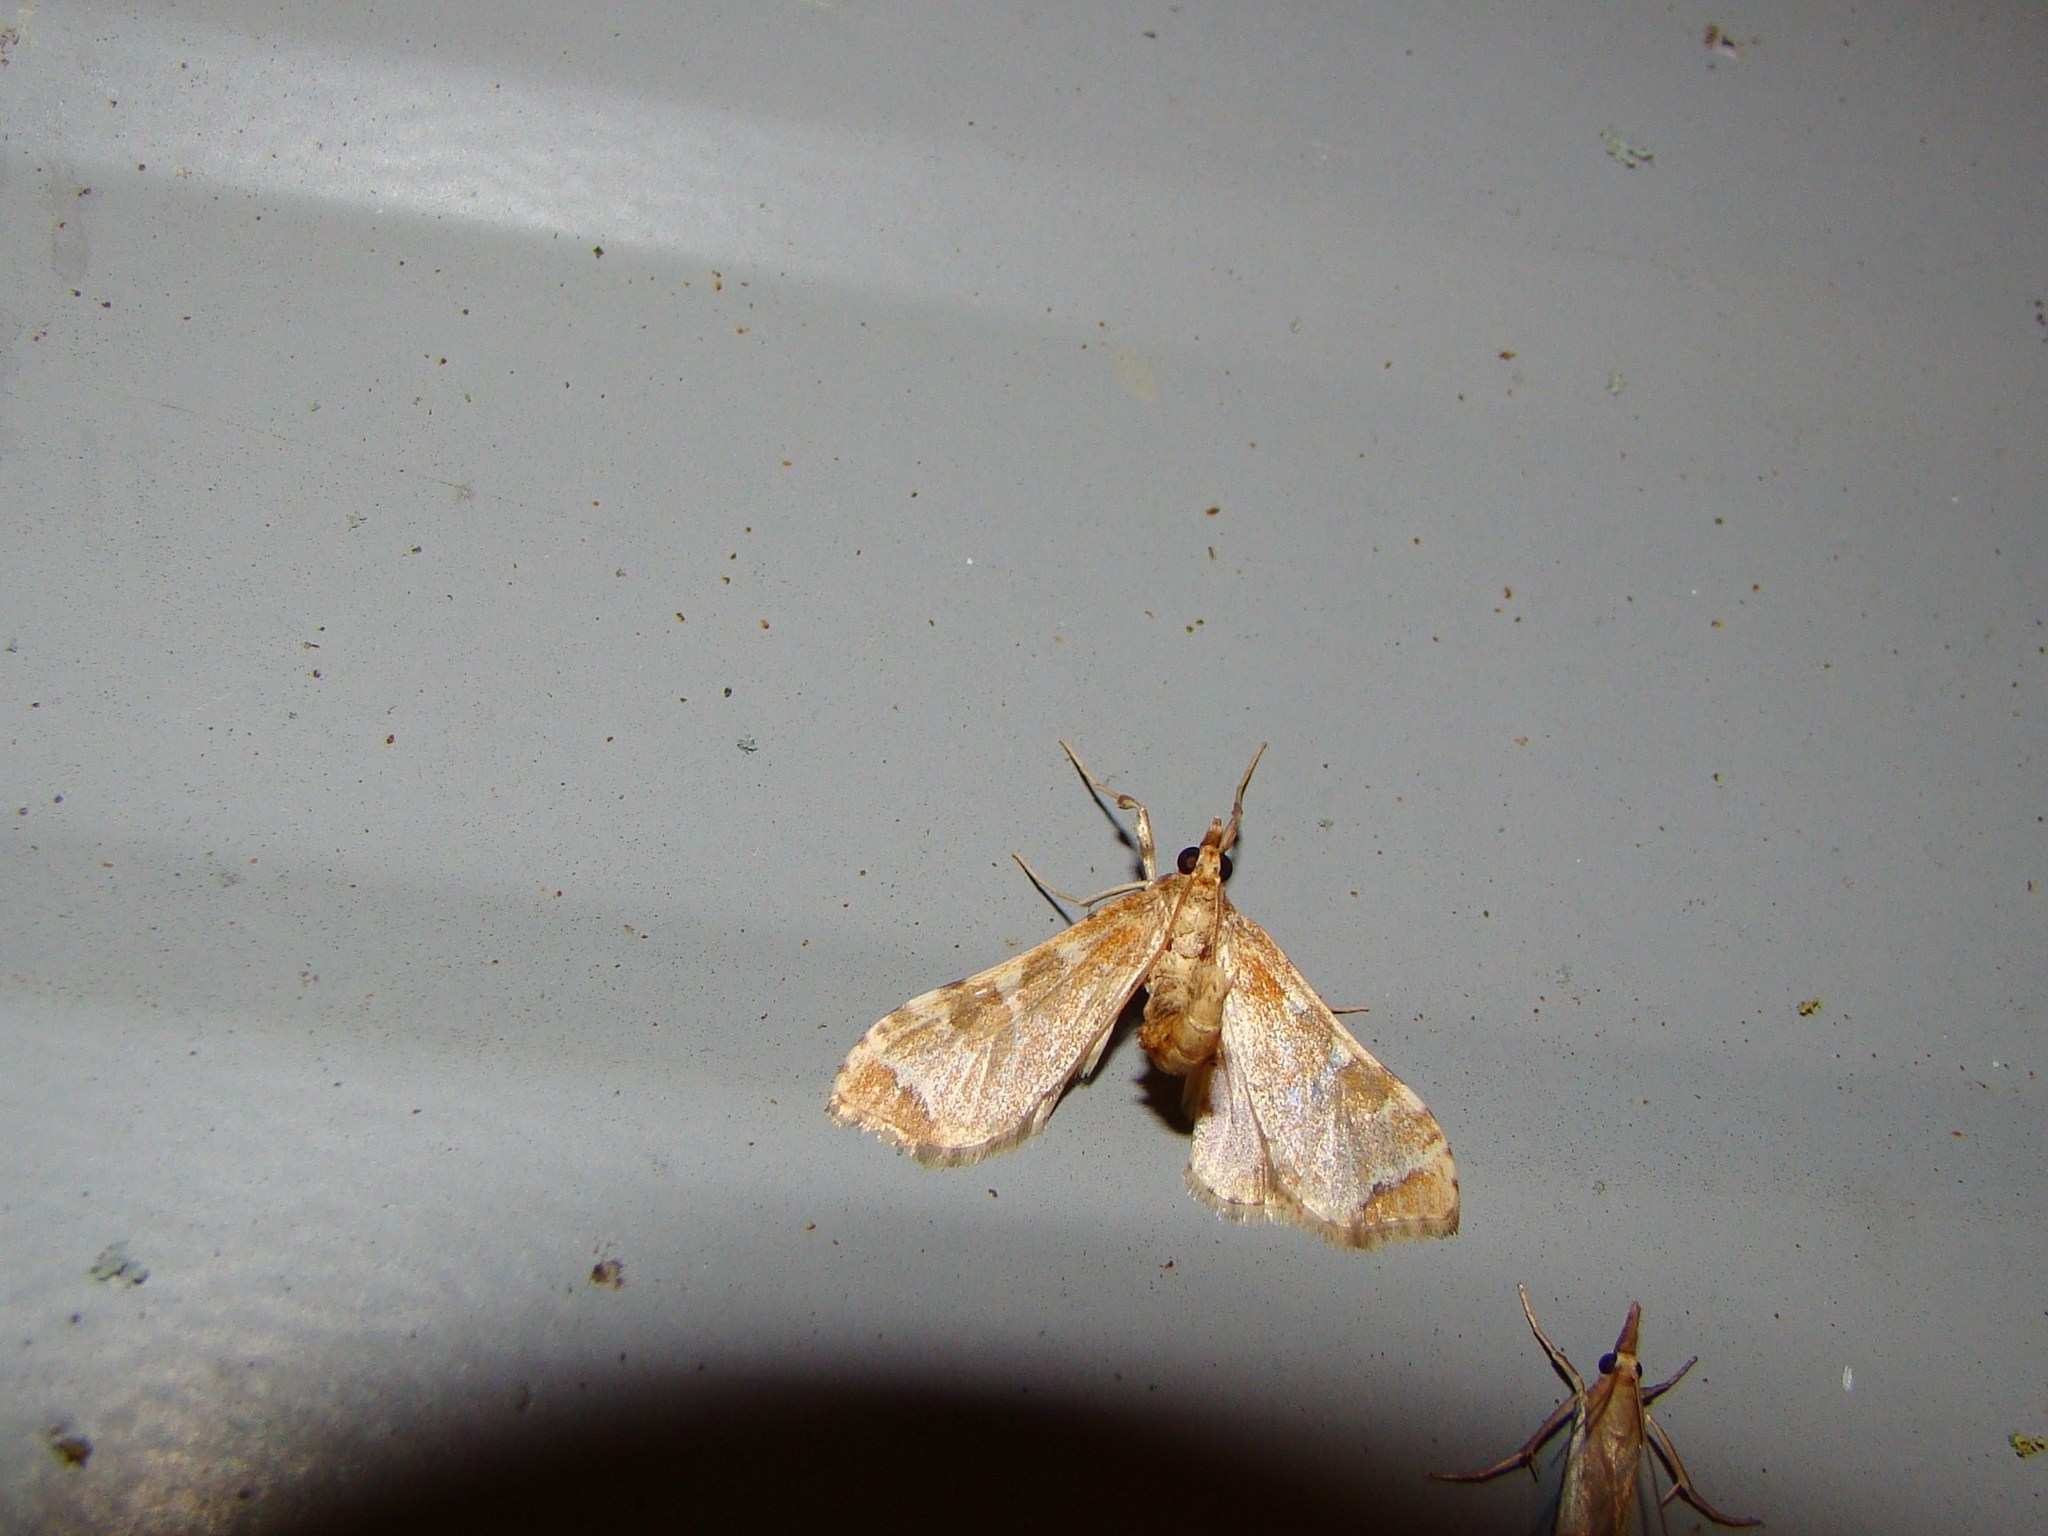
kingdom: Animalia
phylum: Arthropoda
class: Insecta
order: Lepidoptera
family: Crambidae
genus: Sceliodes
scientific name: Sceliodes cordalis
